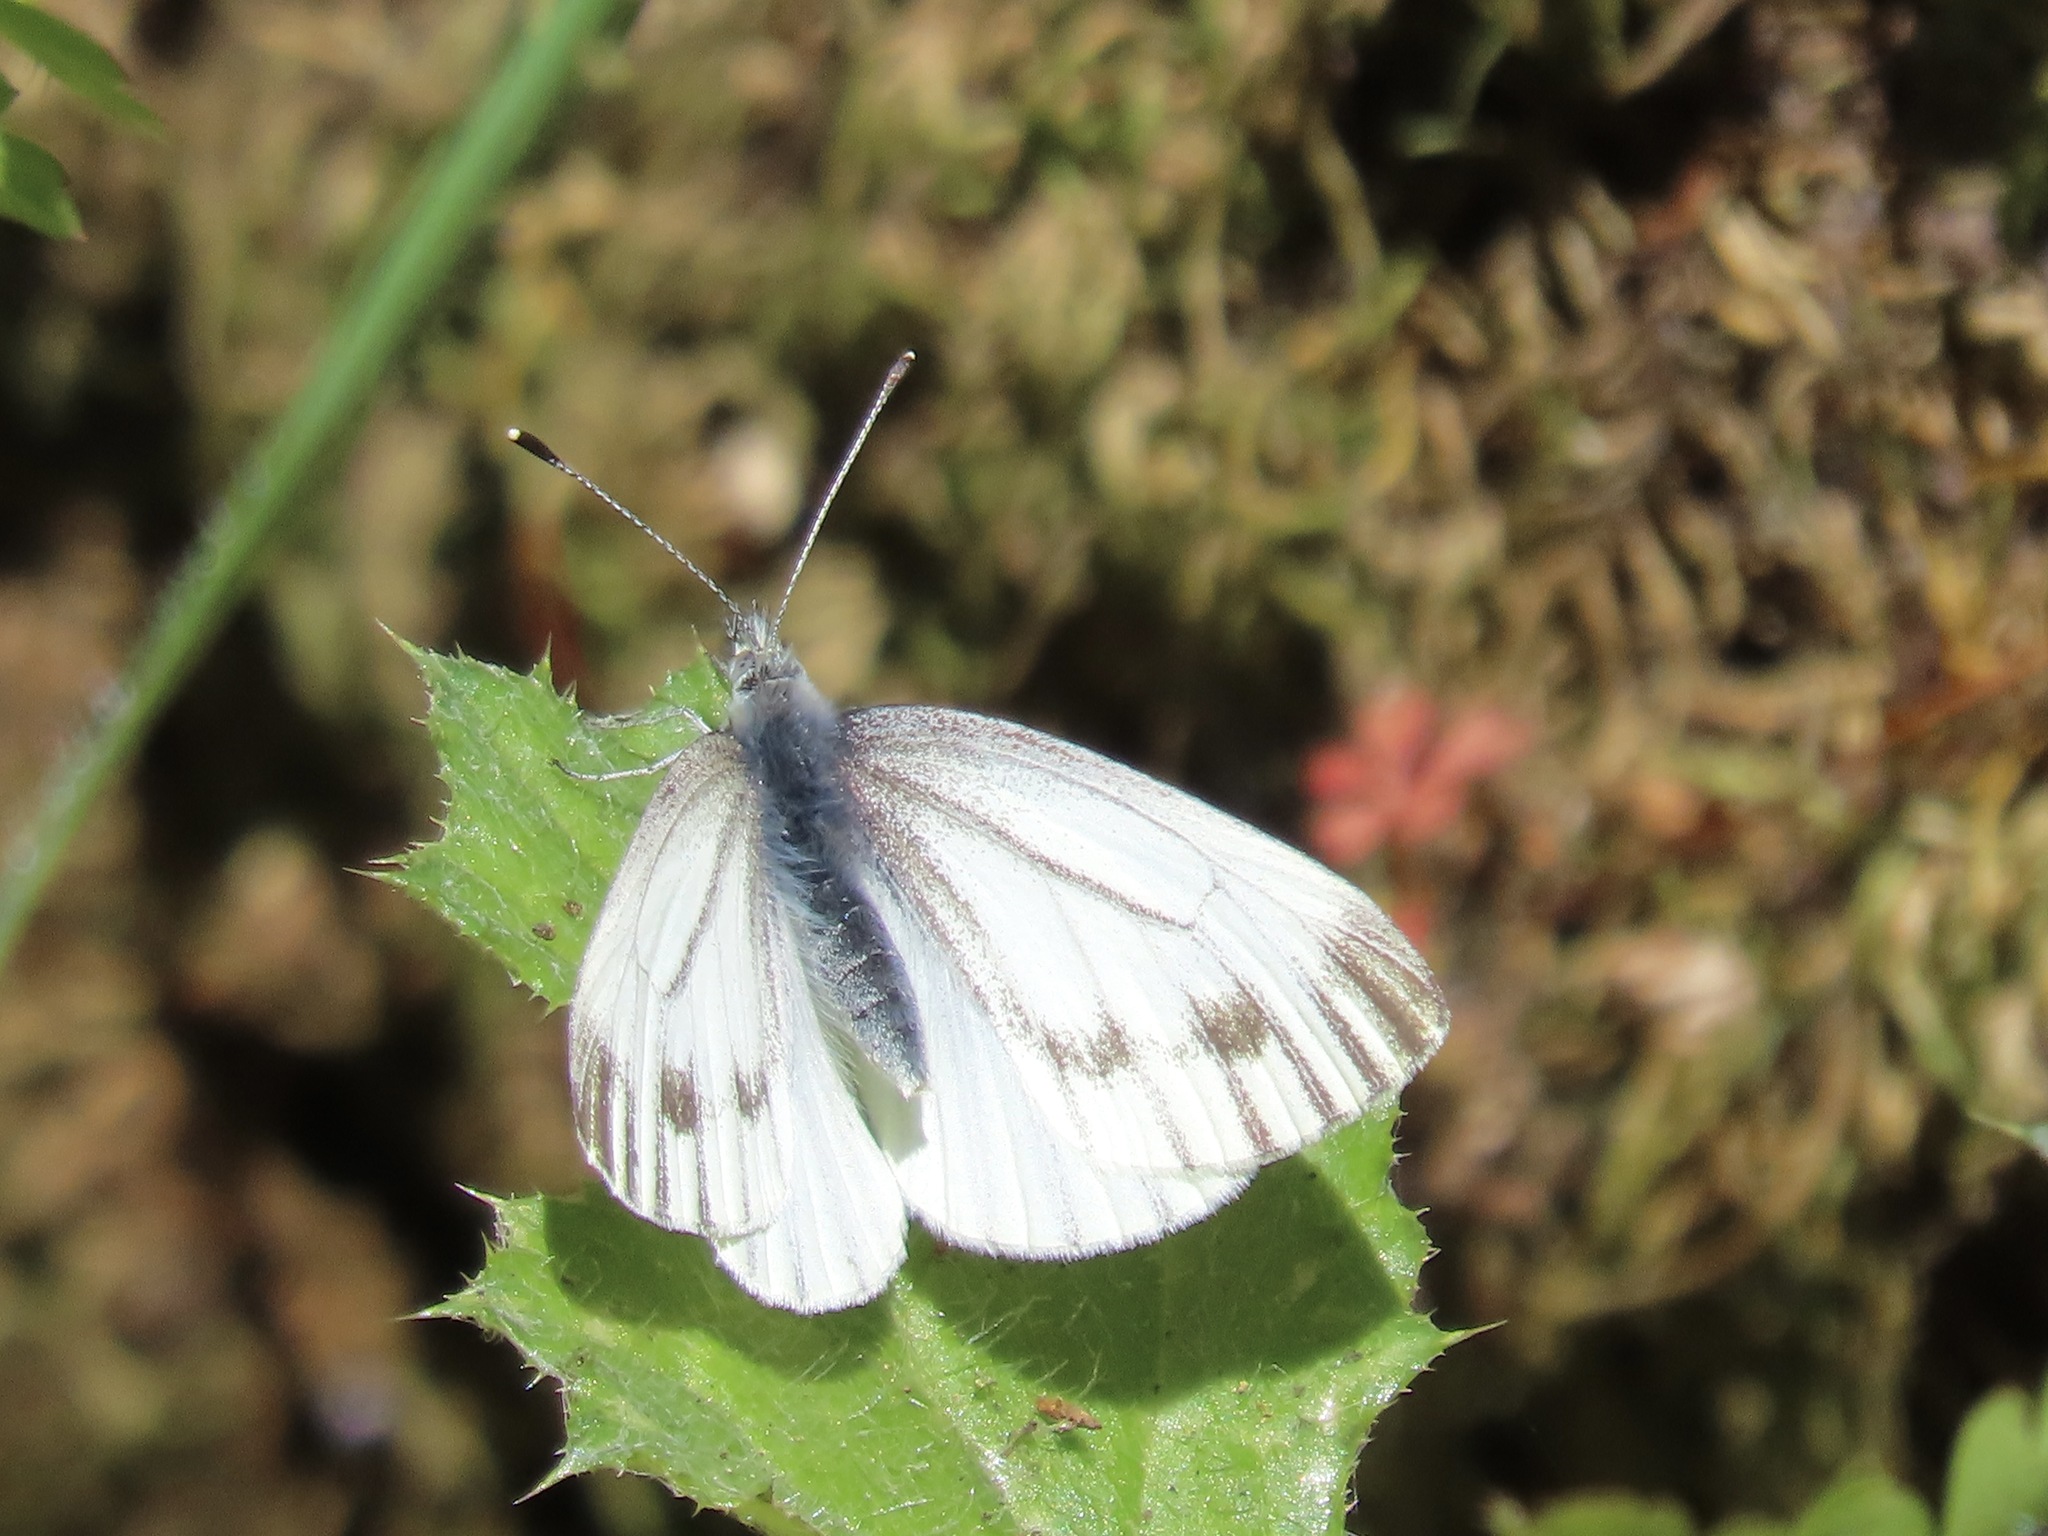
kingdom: Animalia
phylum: Arthropoda
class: Insecta
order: Lepidoptera
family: Pieridae
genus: Pieris
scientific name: Pieris marginalis
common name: Margined white
